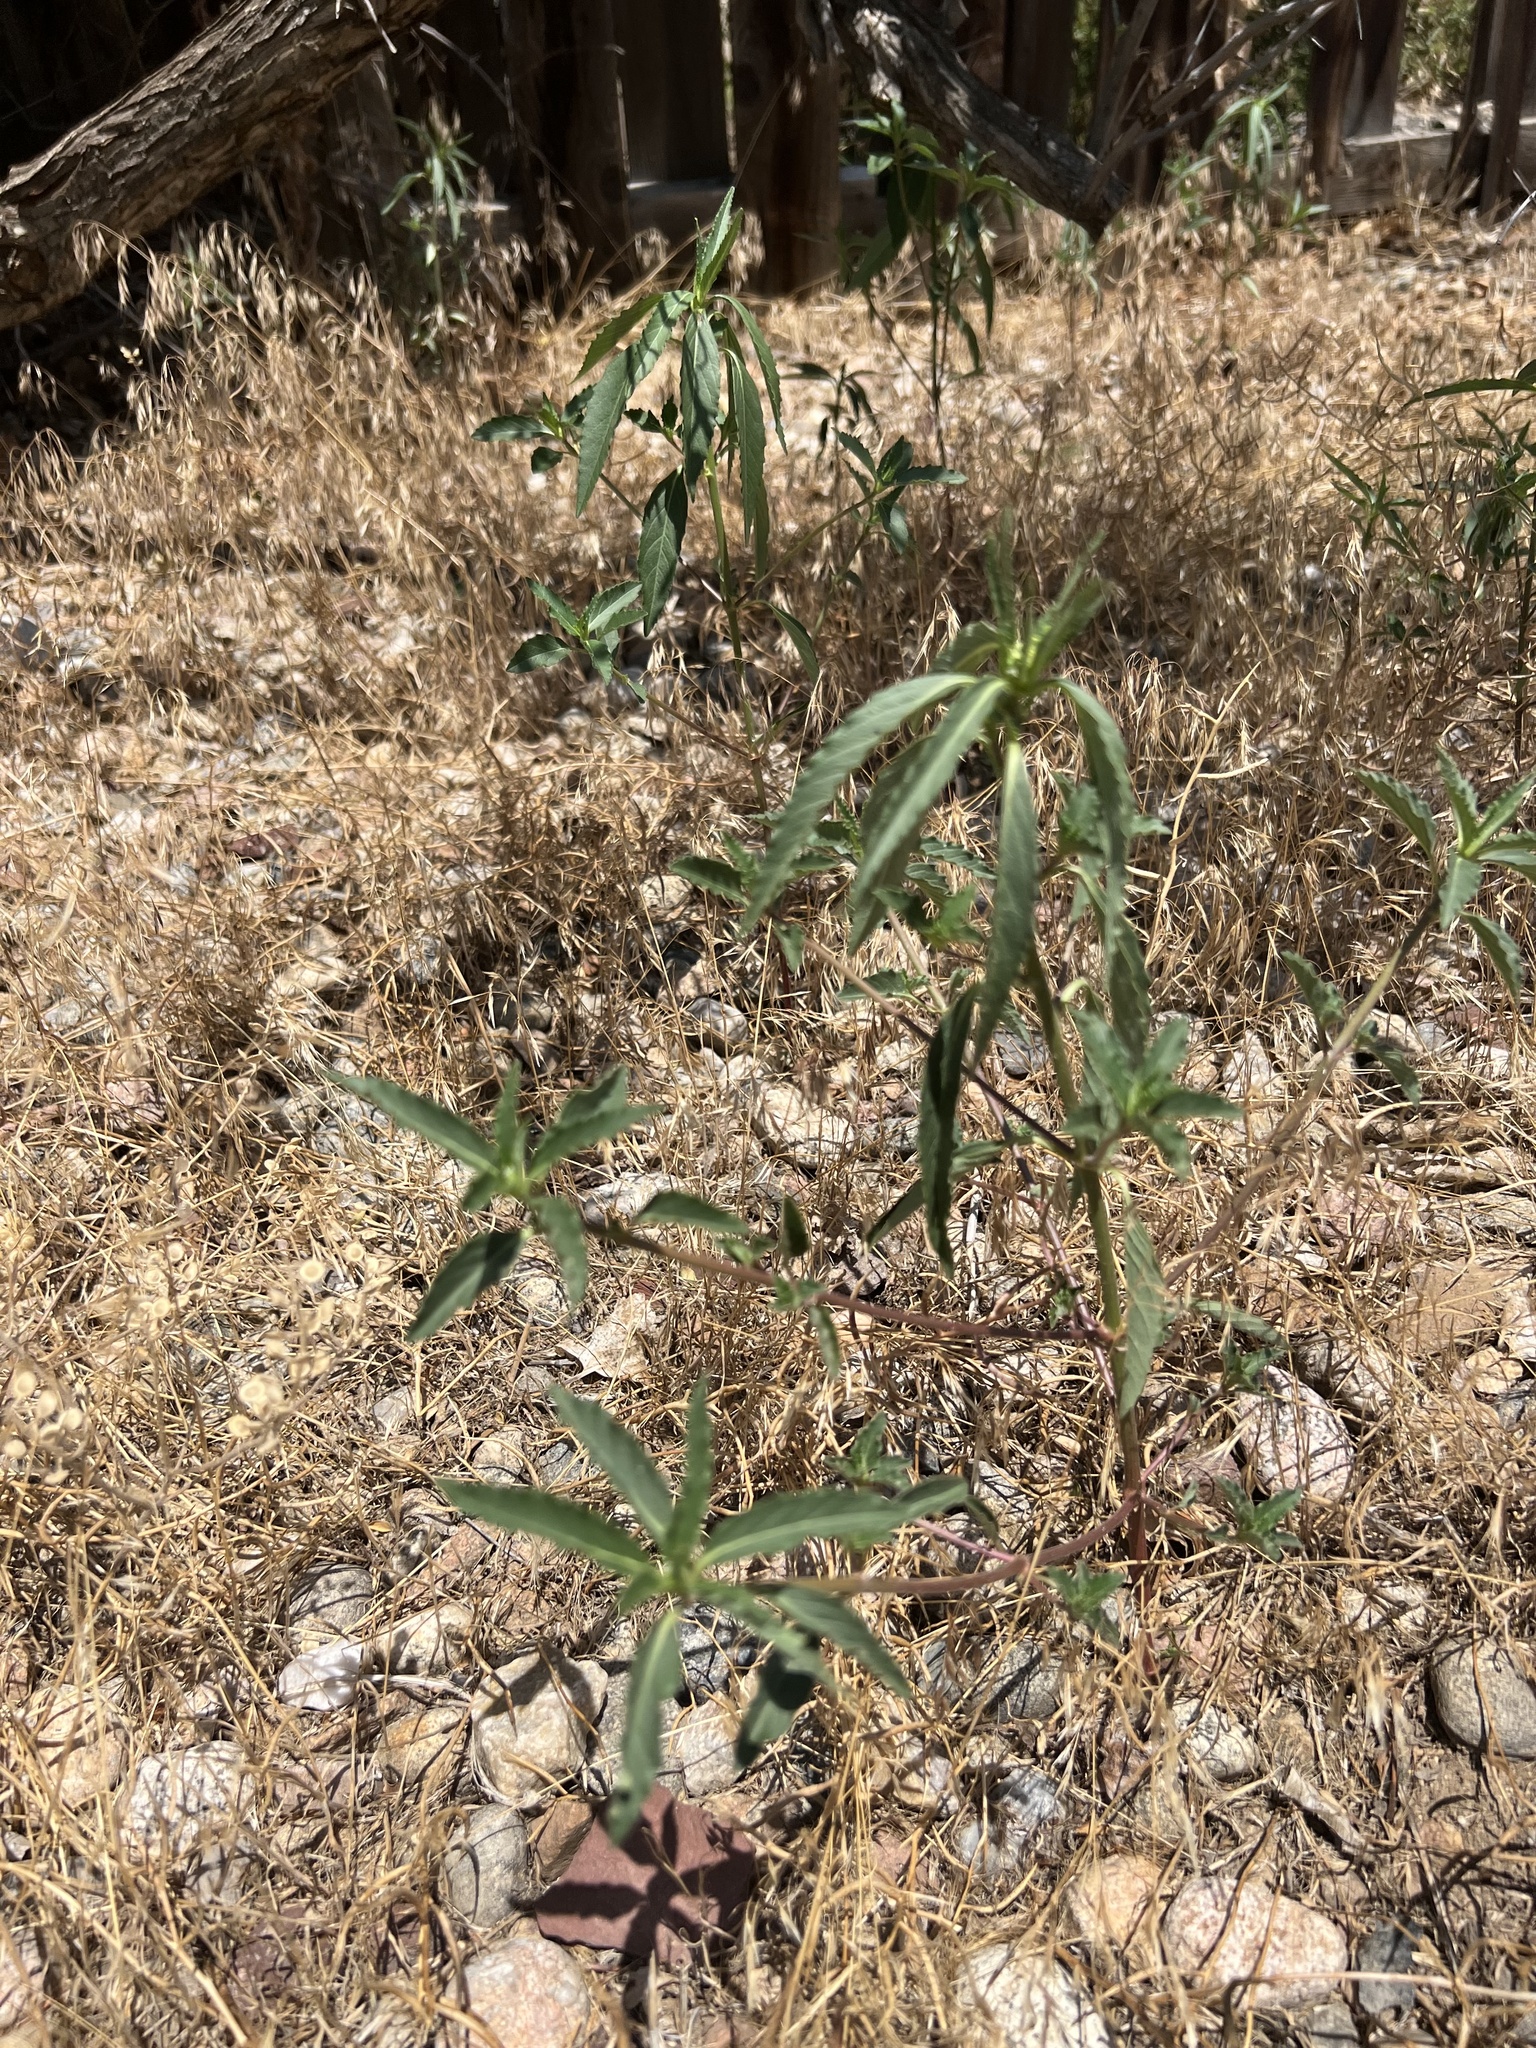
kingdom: Plantae
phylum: Tracheophyta
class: Magnoliopsida
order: Malpighiales
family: Euphorbiaceae
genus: Euphorbia
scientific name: Euphorbia davidii
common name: David's spurge
